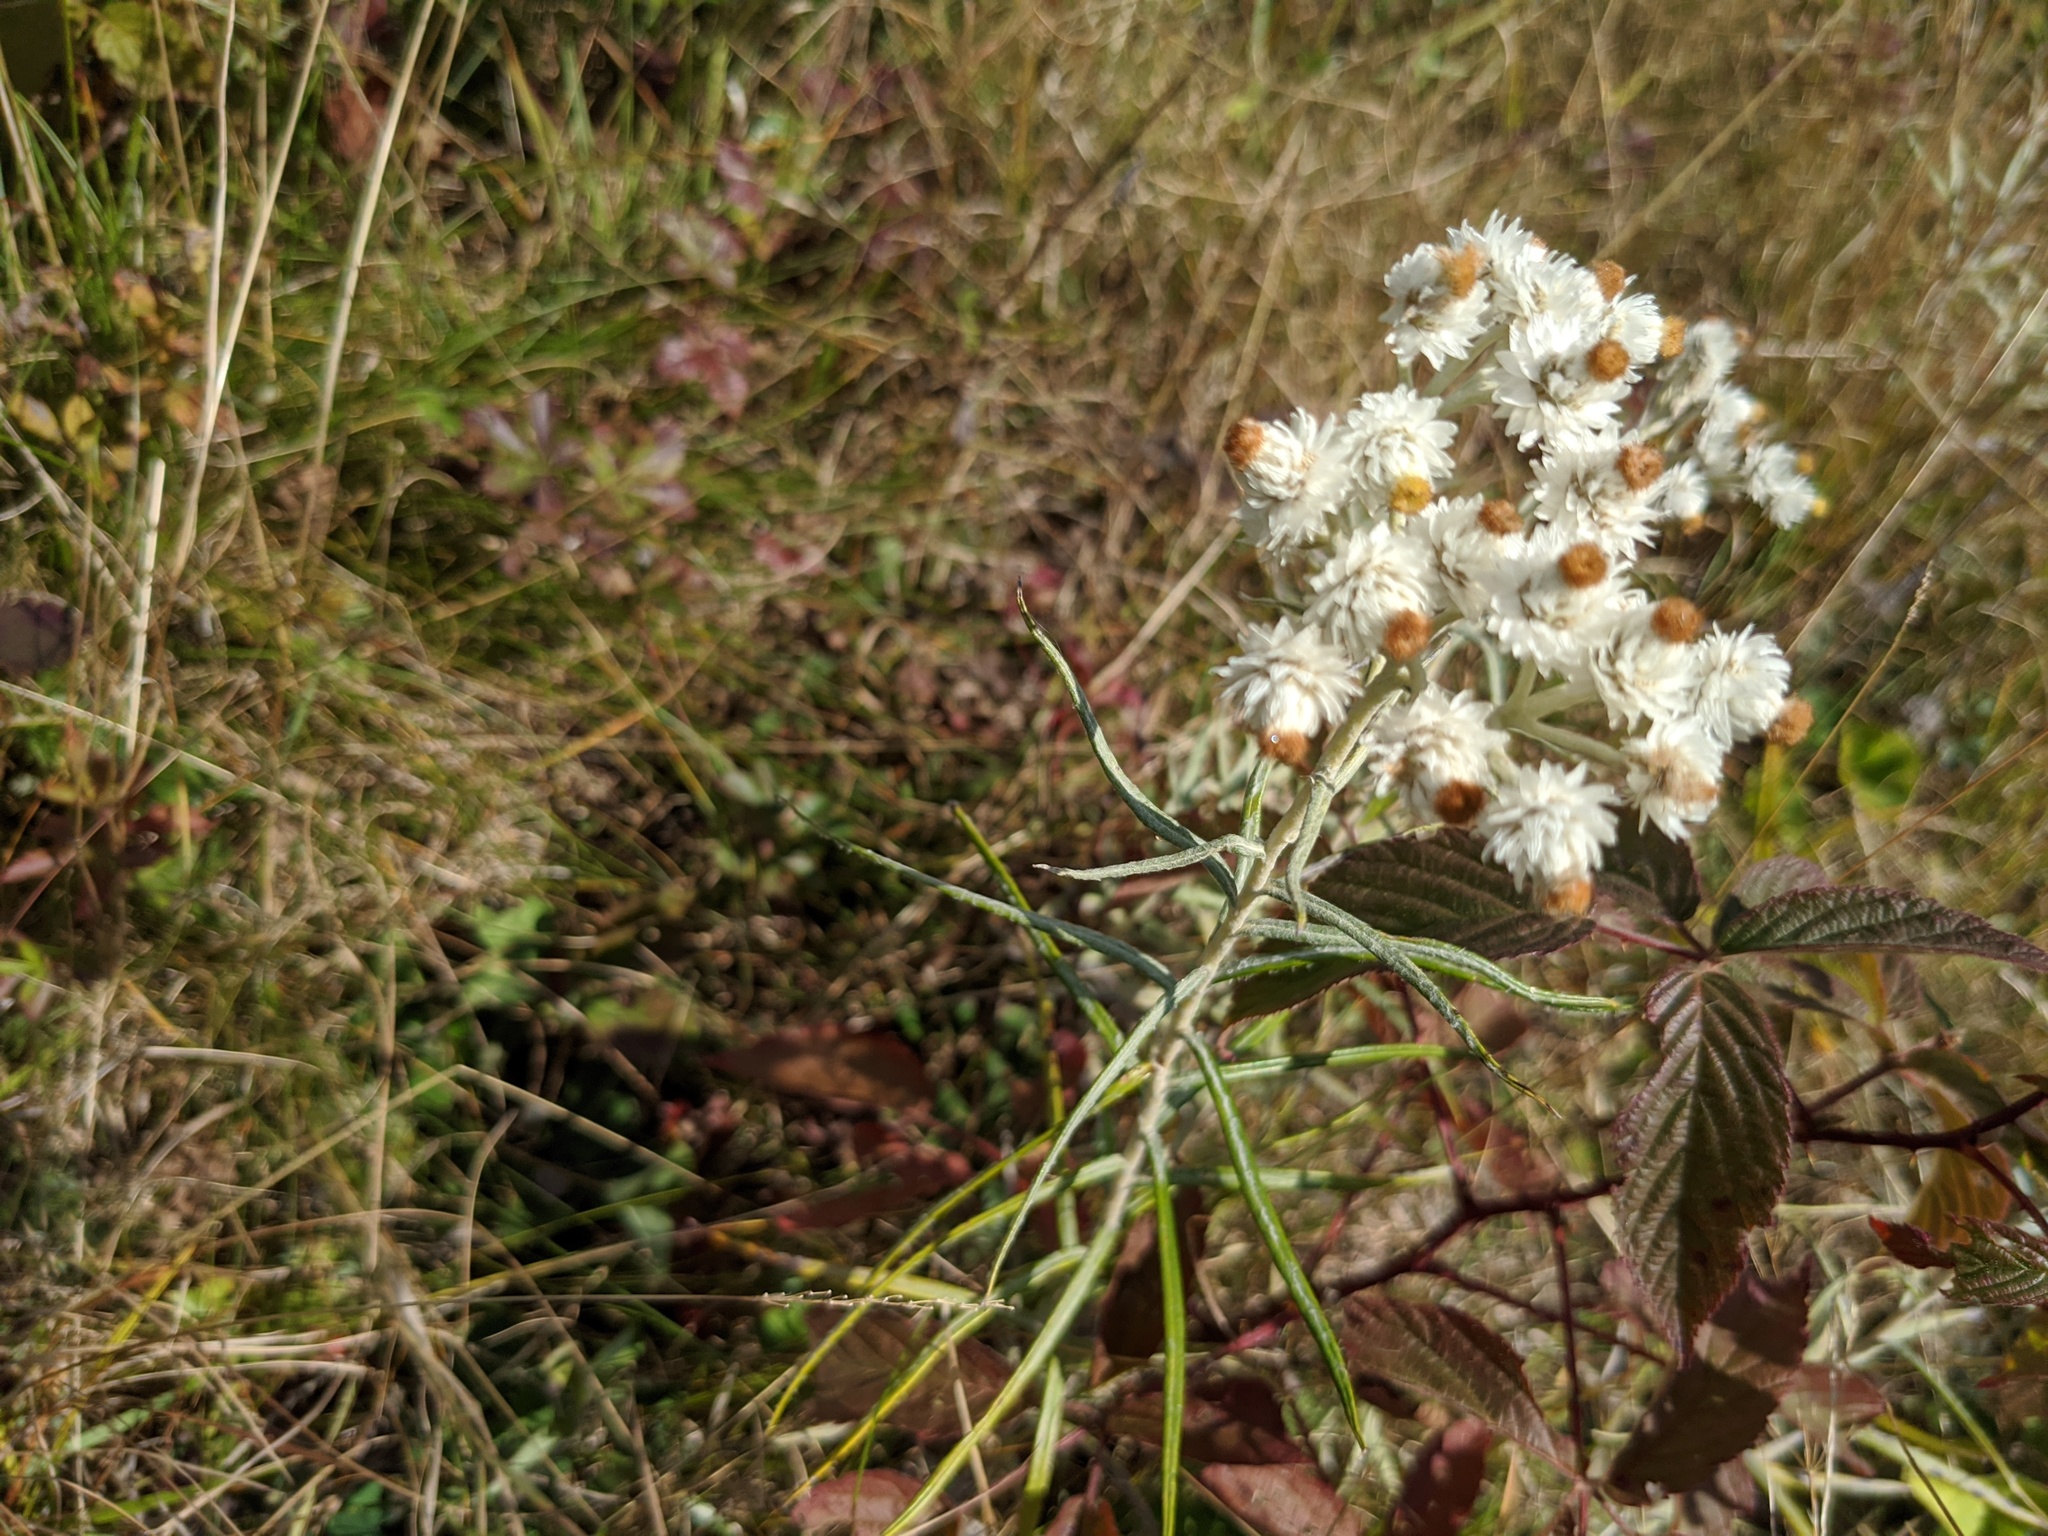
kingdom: Plantae
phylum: Tracheophyta
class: Magnoliopsida
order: Asterales
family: Asteraceae
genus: Anaphalis
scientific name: Anaphalis margaritacea
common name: Pearly everlasting
